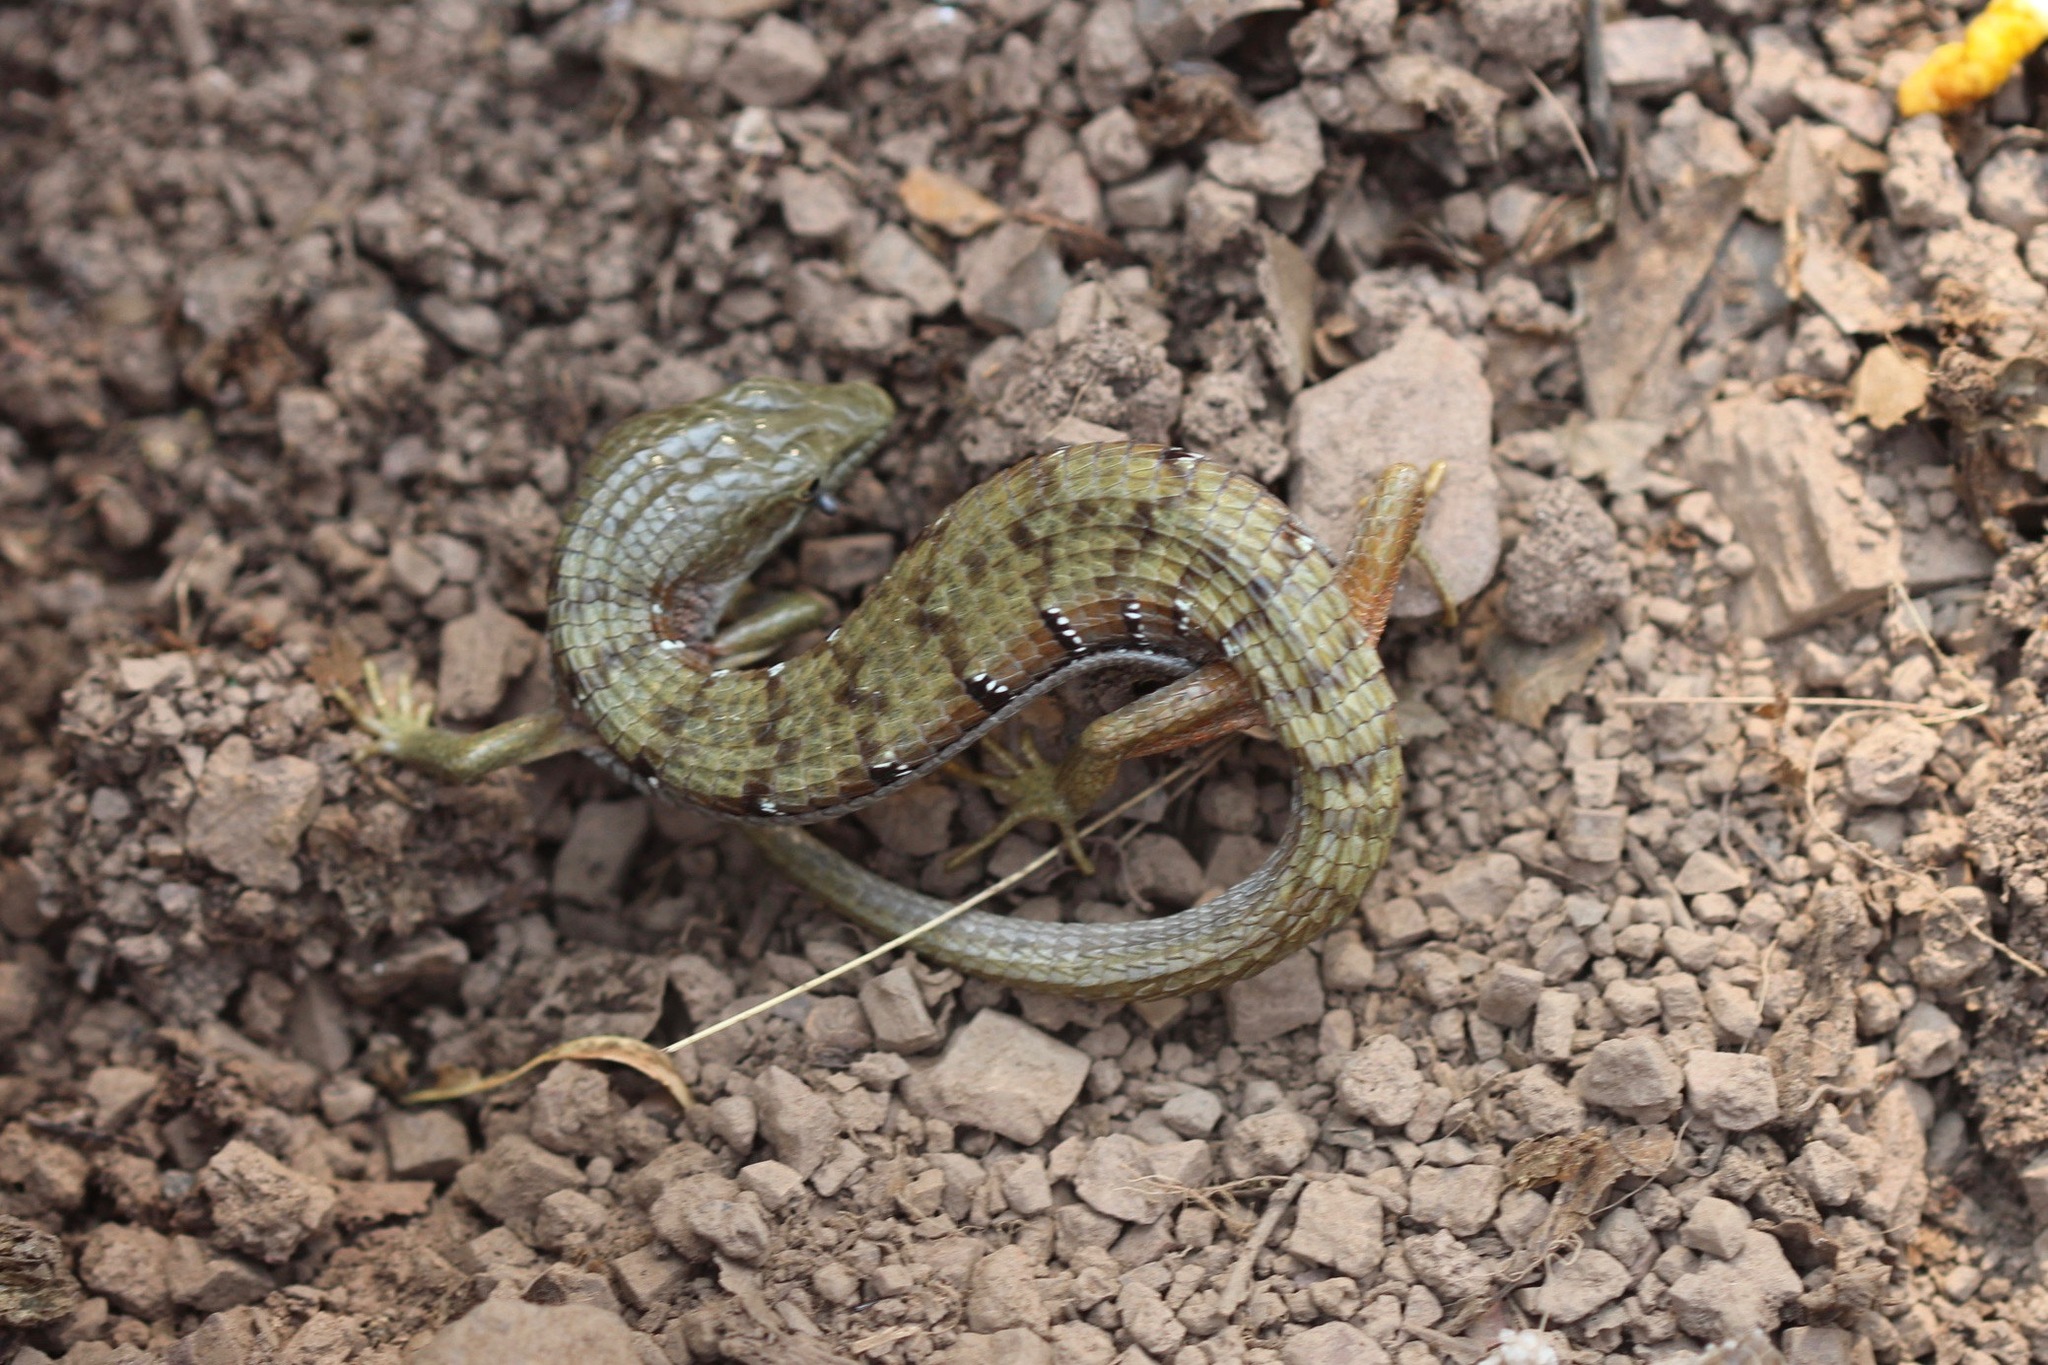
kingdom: Animalia
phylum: Chordata
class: Squamata
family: Anguidae
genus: Elgaria
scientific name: Elgaria multicarinata
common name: Southern alligator lizard
